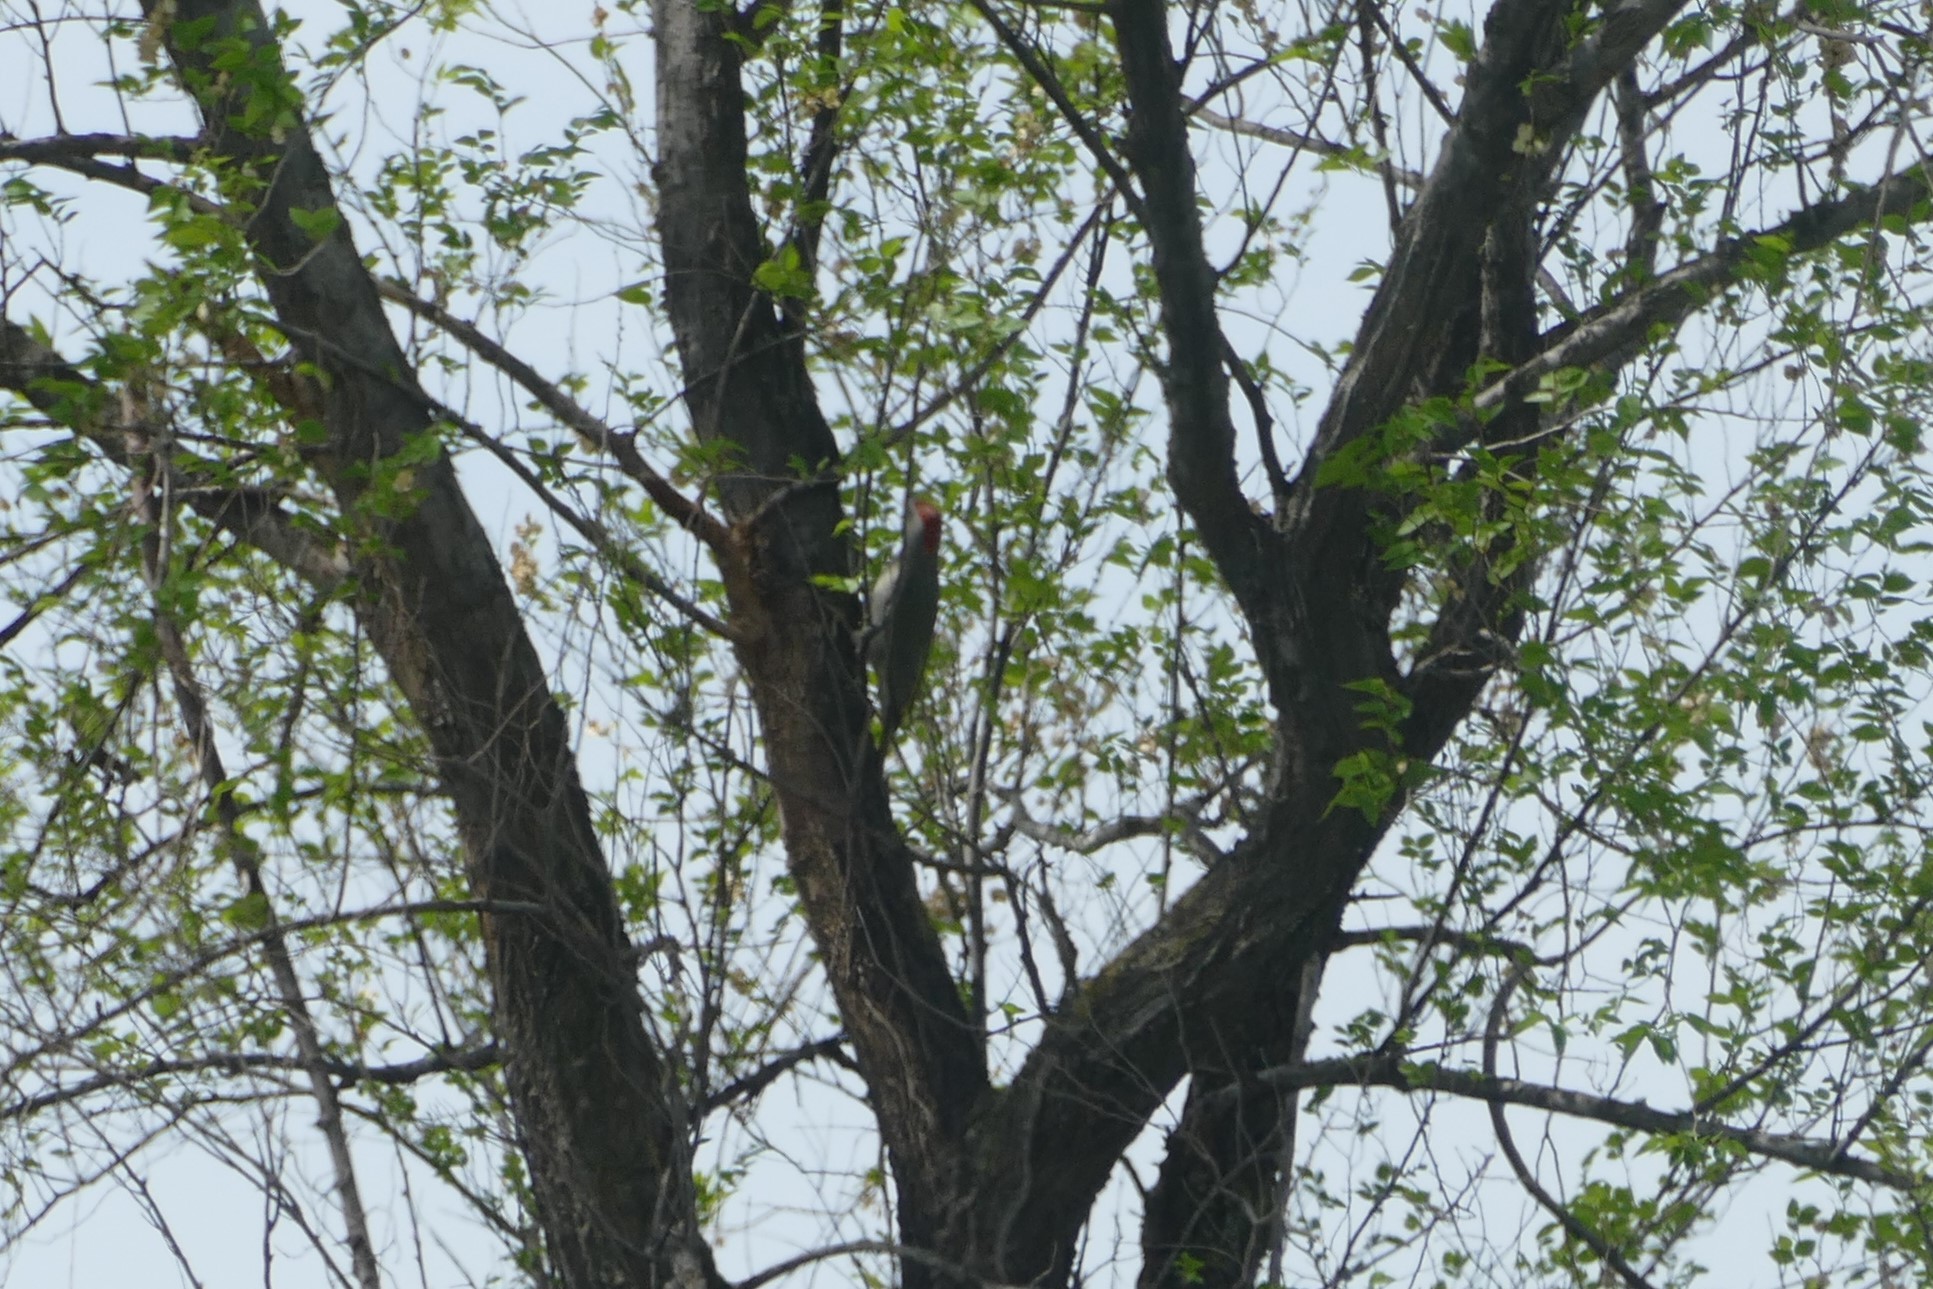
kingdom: Animalia
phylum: Chordata
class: Aves
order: Piciformes
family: Picidae
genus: Picus
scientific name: Picus sharpei
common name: Iberian green woodpecker
